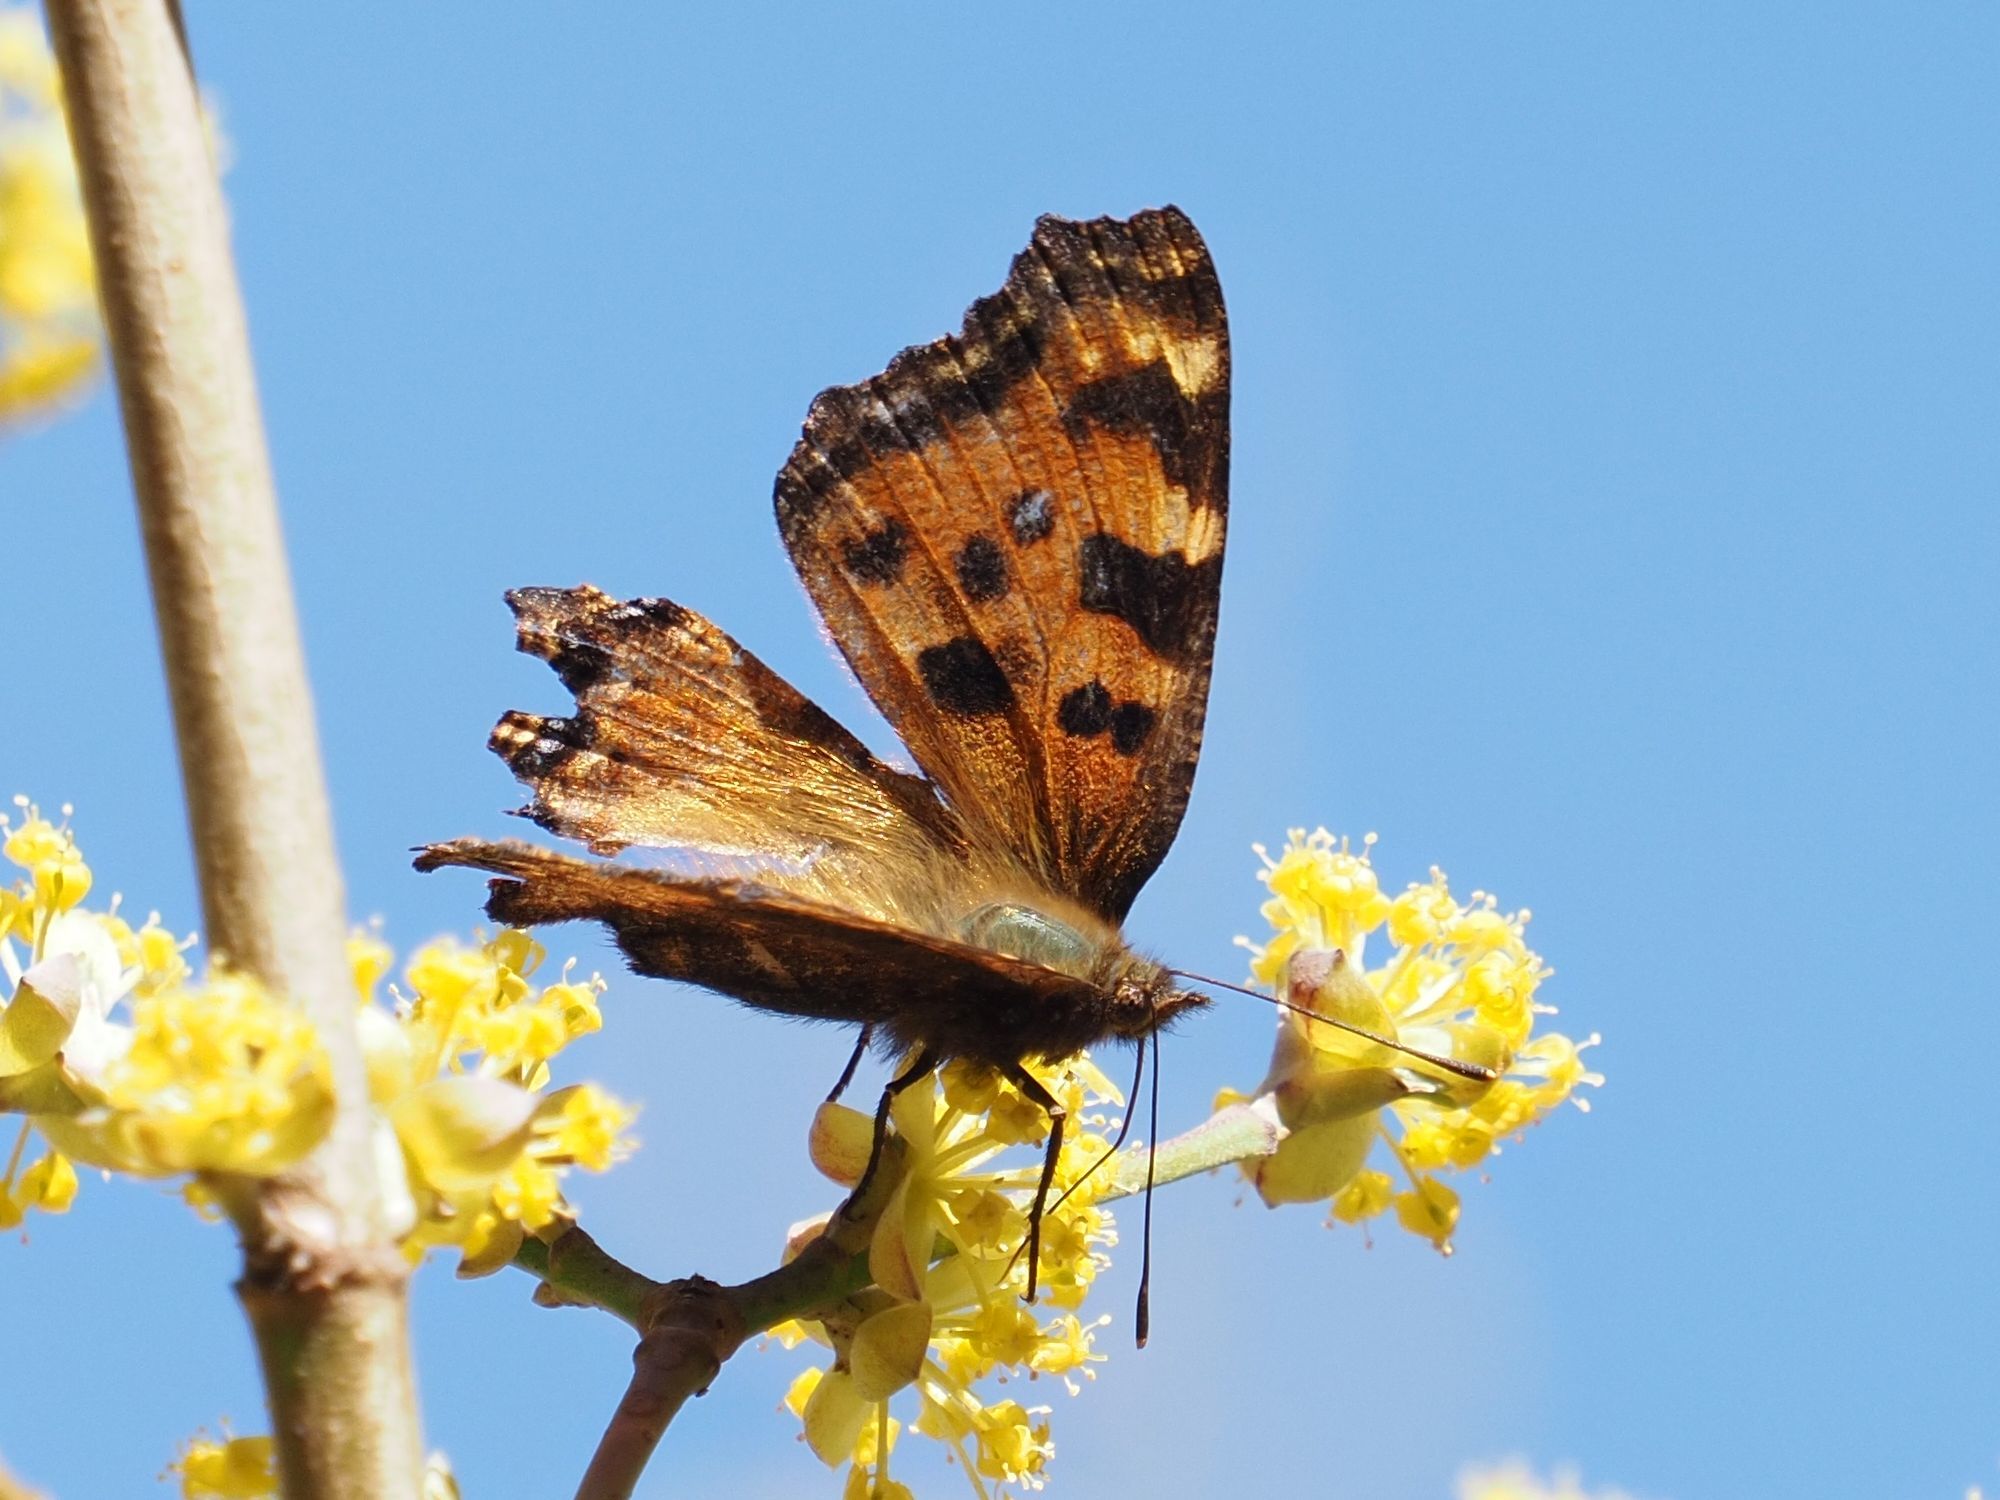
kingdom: Animalia
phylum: Arthropoda
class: Insecta
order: Lepidoptera
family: Nymphalidae
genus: Nymphalis
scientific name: Nymphalis polychloros
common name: Large tortoiseshell
